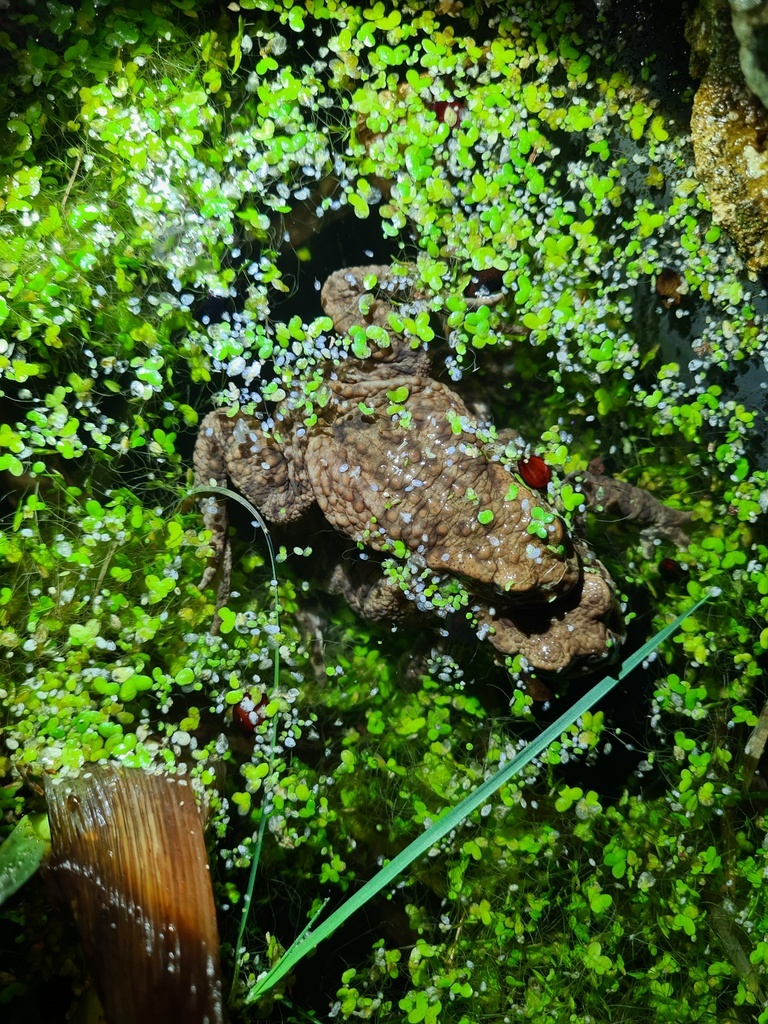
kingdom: Animalia
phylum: Chordata
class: Amphibia
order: Anura
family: Bufonidae
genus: Bufo
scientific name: Bufo bufo
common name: Common toad
